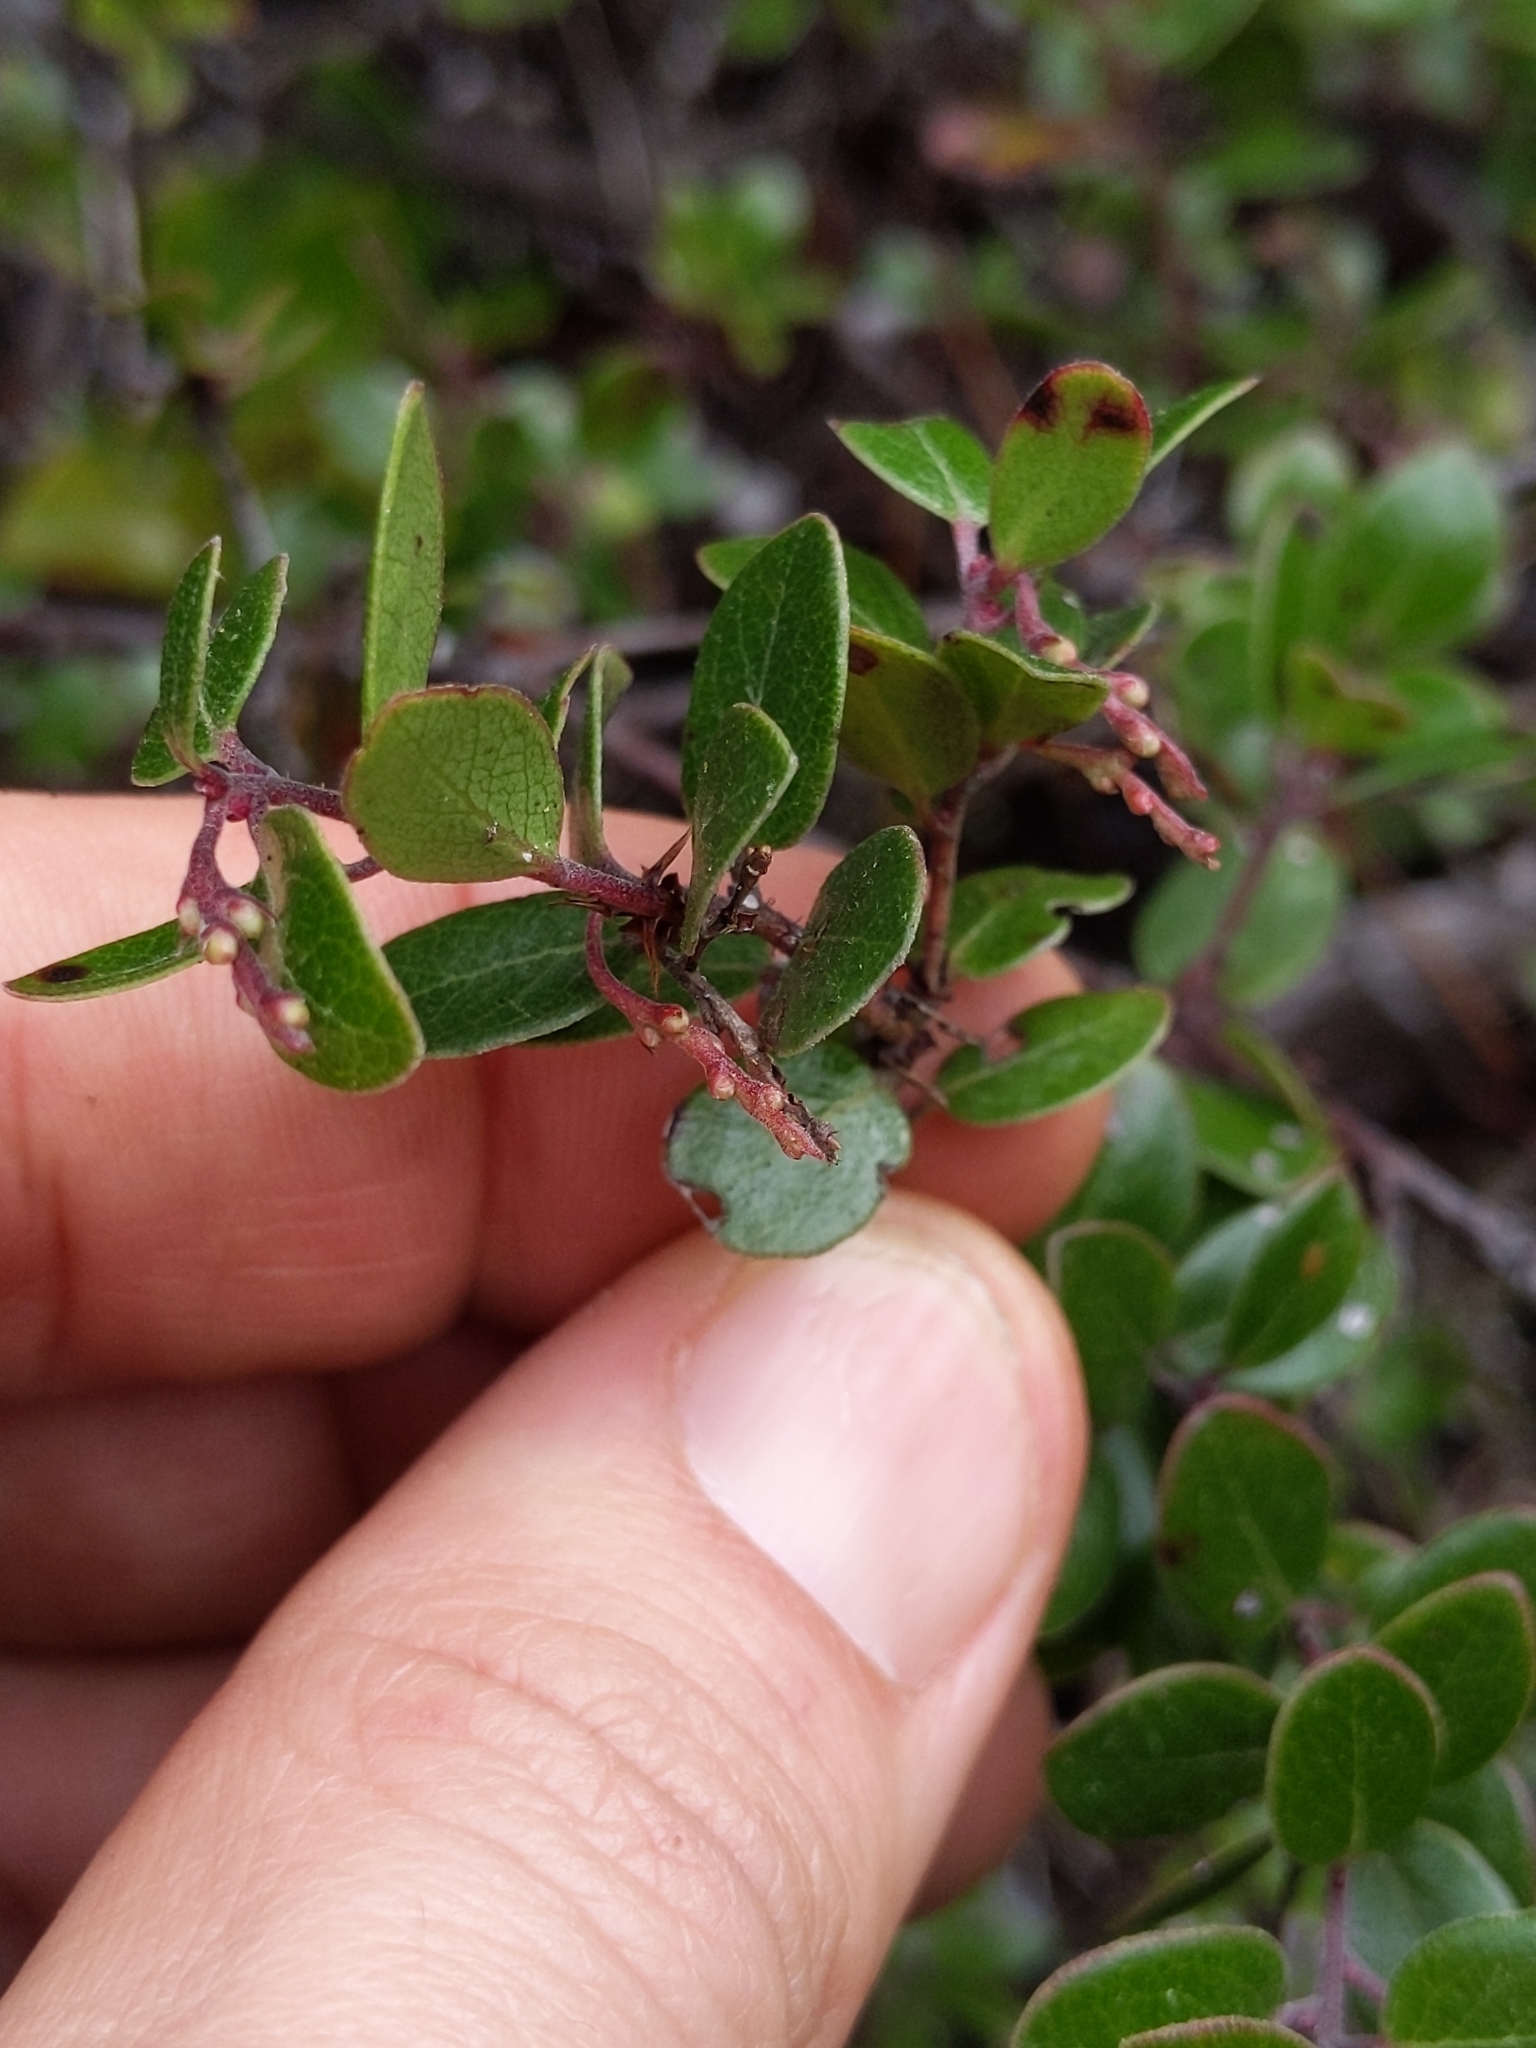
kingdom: Plantae
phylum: Tracheophyta
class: Magnoliopsida
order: Ericales
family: Ericaceae
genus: Arctostaphylos
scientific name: Arctostaphylos nummularia
